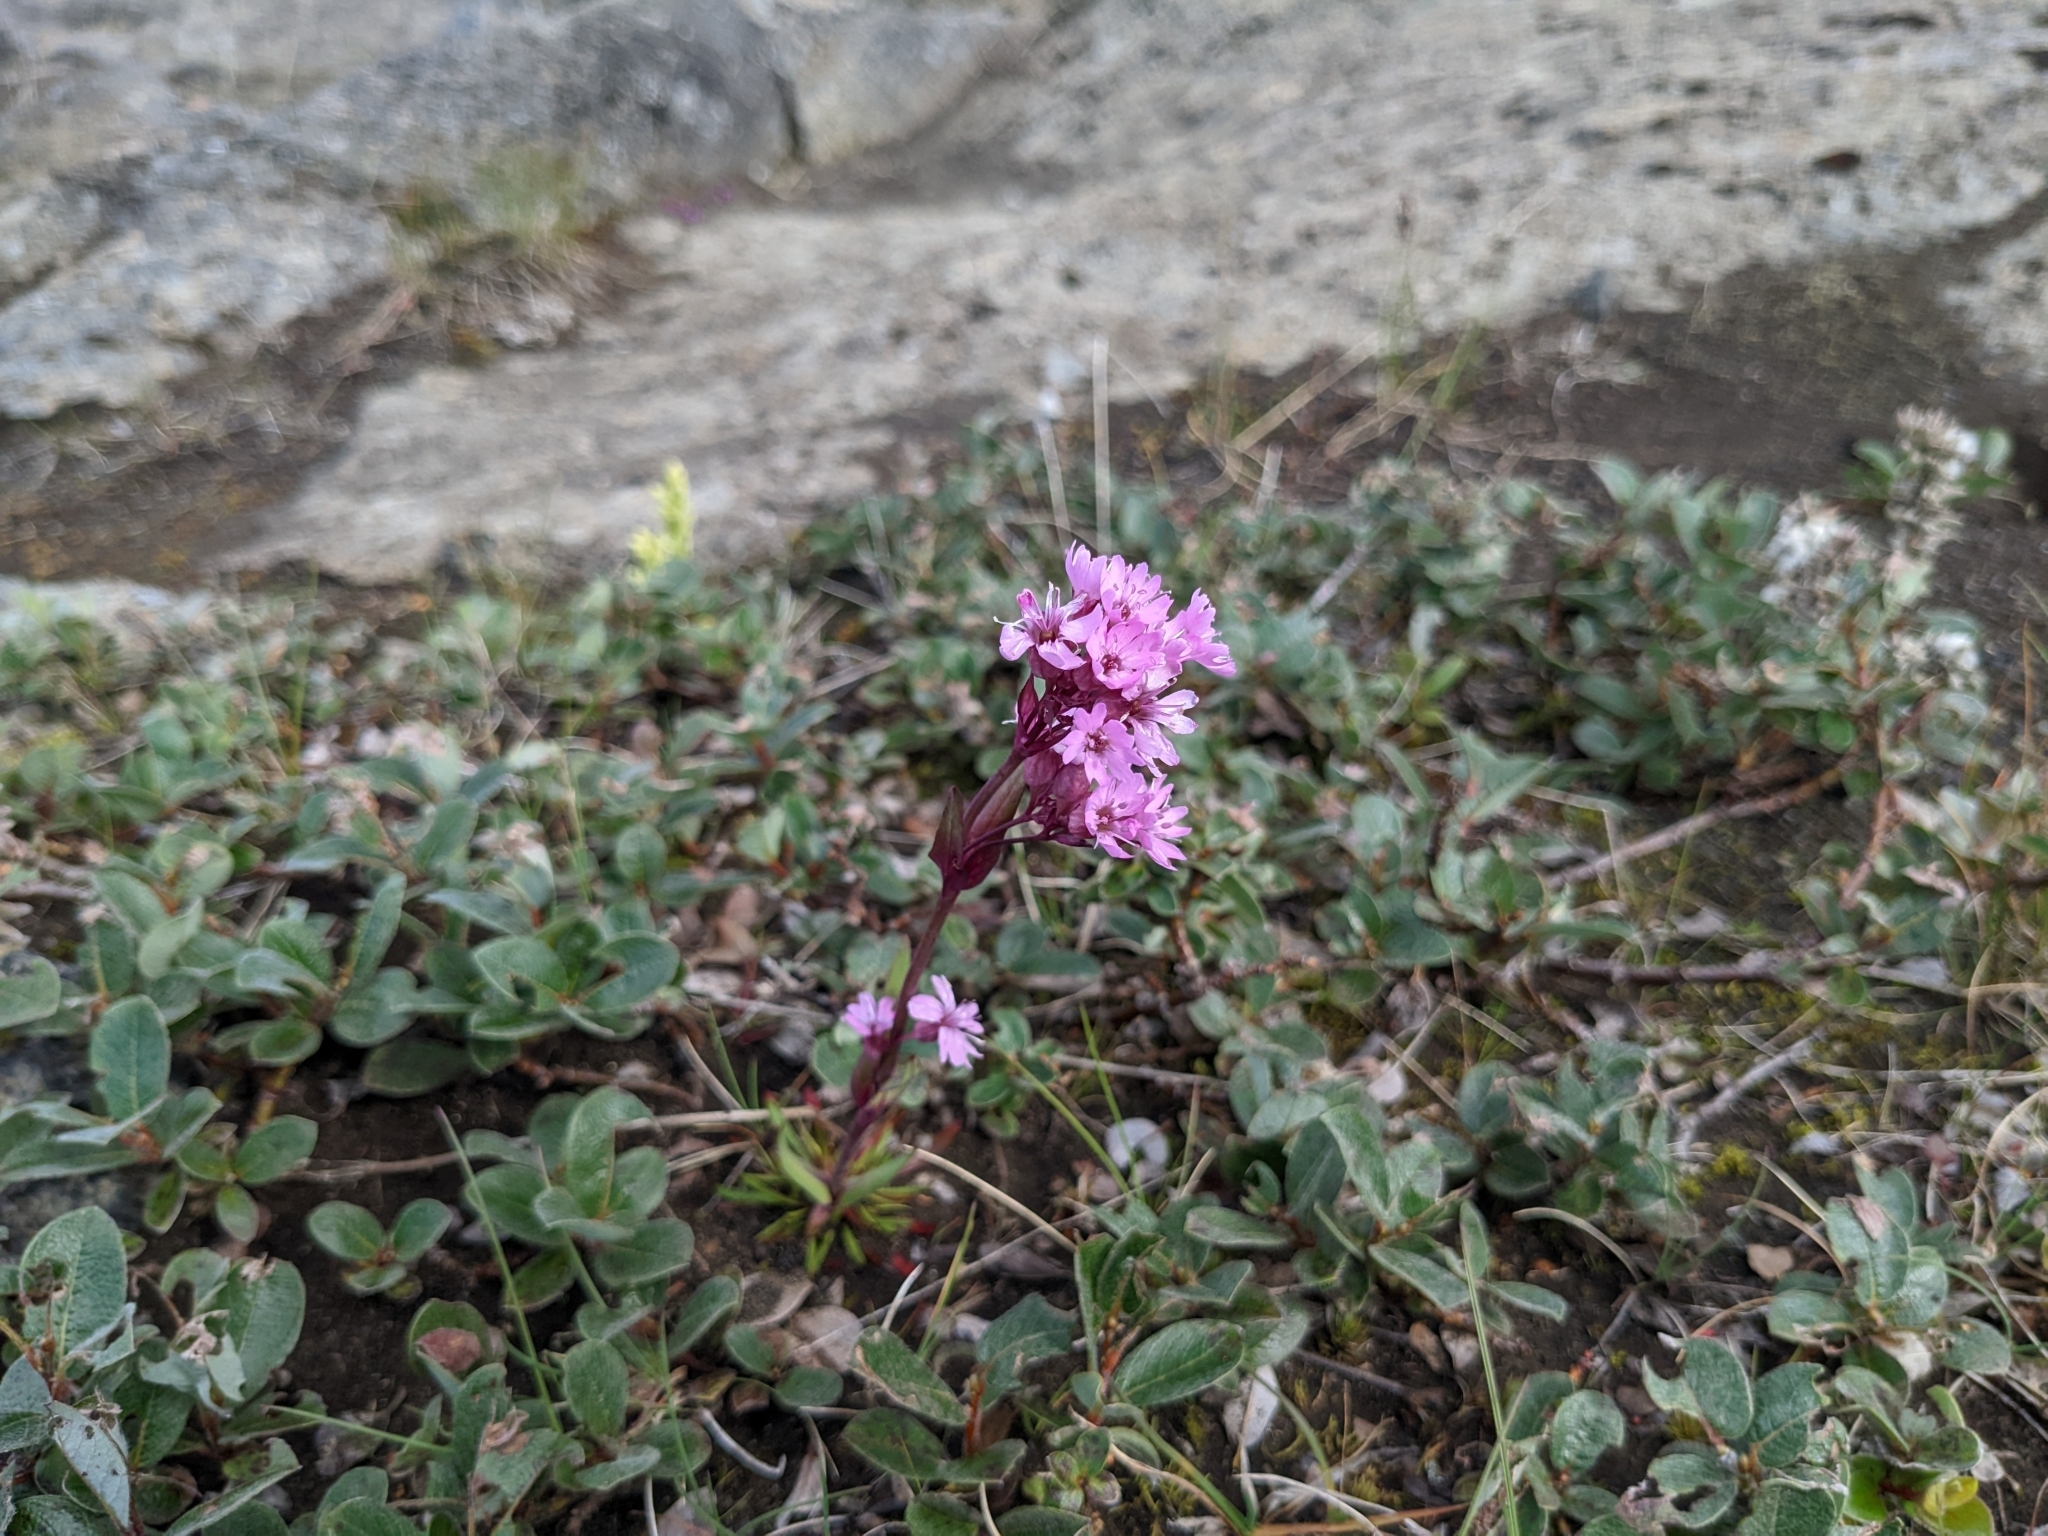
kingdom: Plantae
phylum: Tracheophyta
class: Magnoliopsida
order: Caryophyllales
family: Caryophyllaceae
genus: Viscaria
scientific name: Viscaria alpina
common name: Alpine campion
